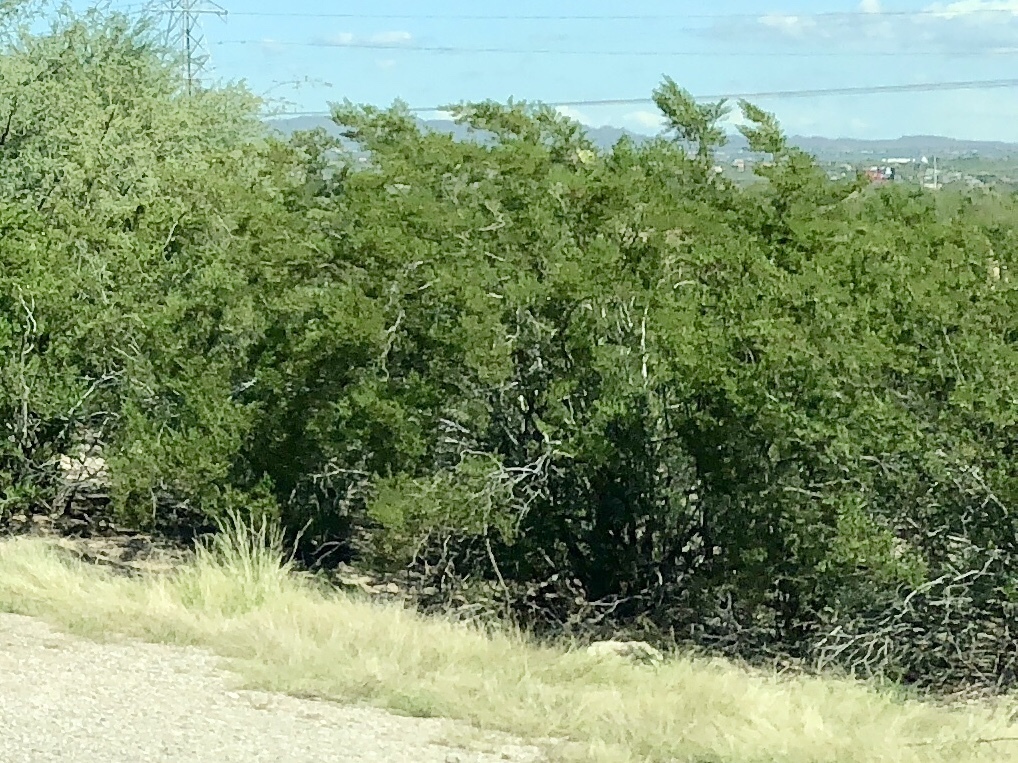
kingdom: Plantae
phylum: Tracheophyta
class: Magnoliopsida
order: Zygophyllales
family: Zygophyllaceae
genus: Larrea
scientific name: Larrea tridentata
